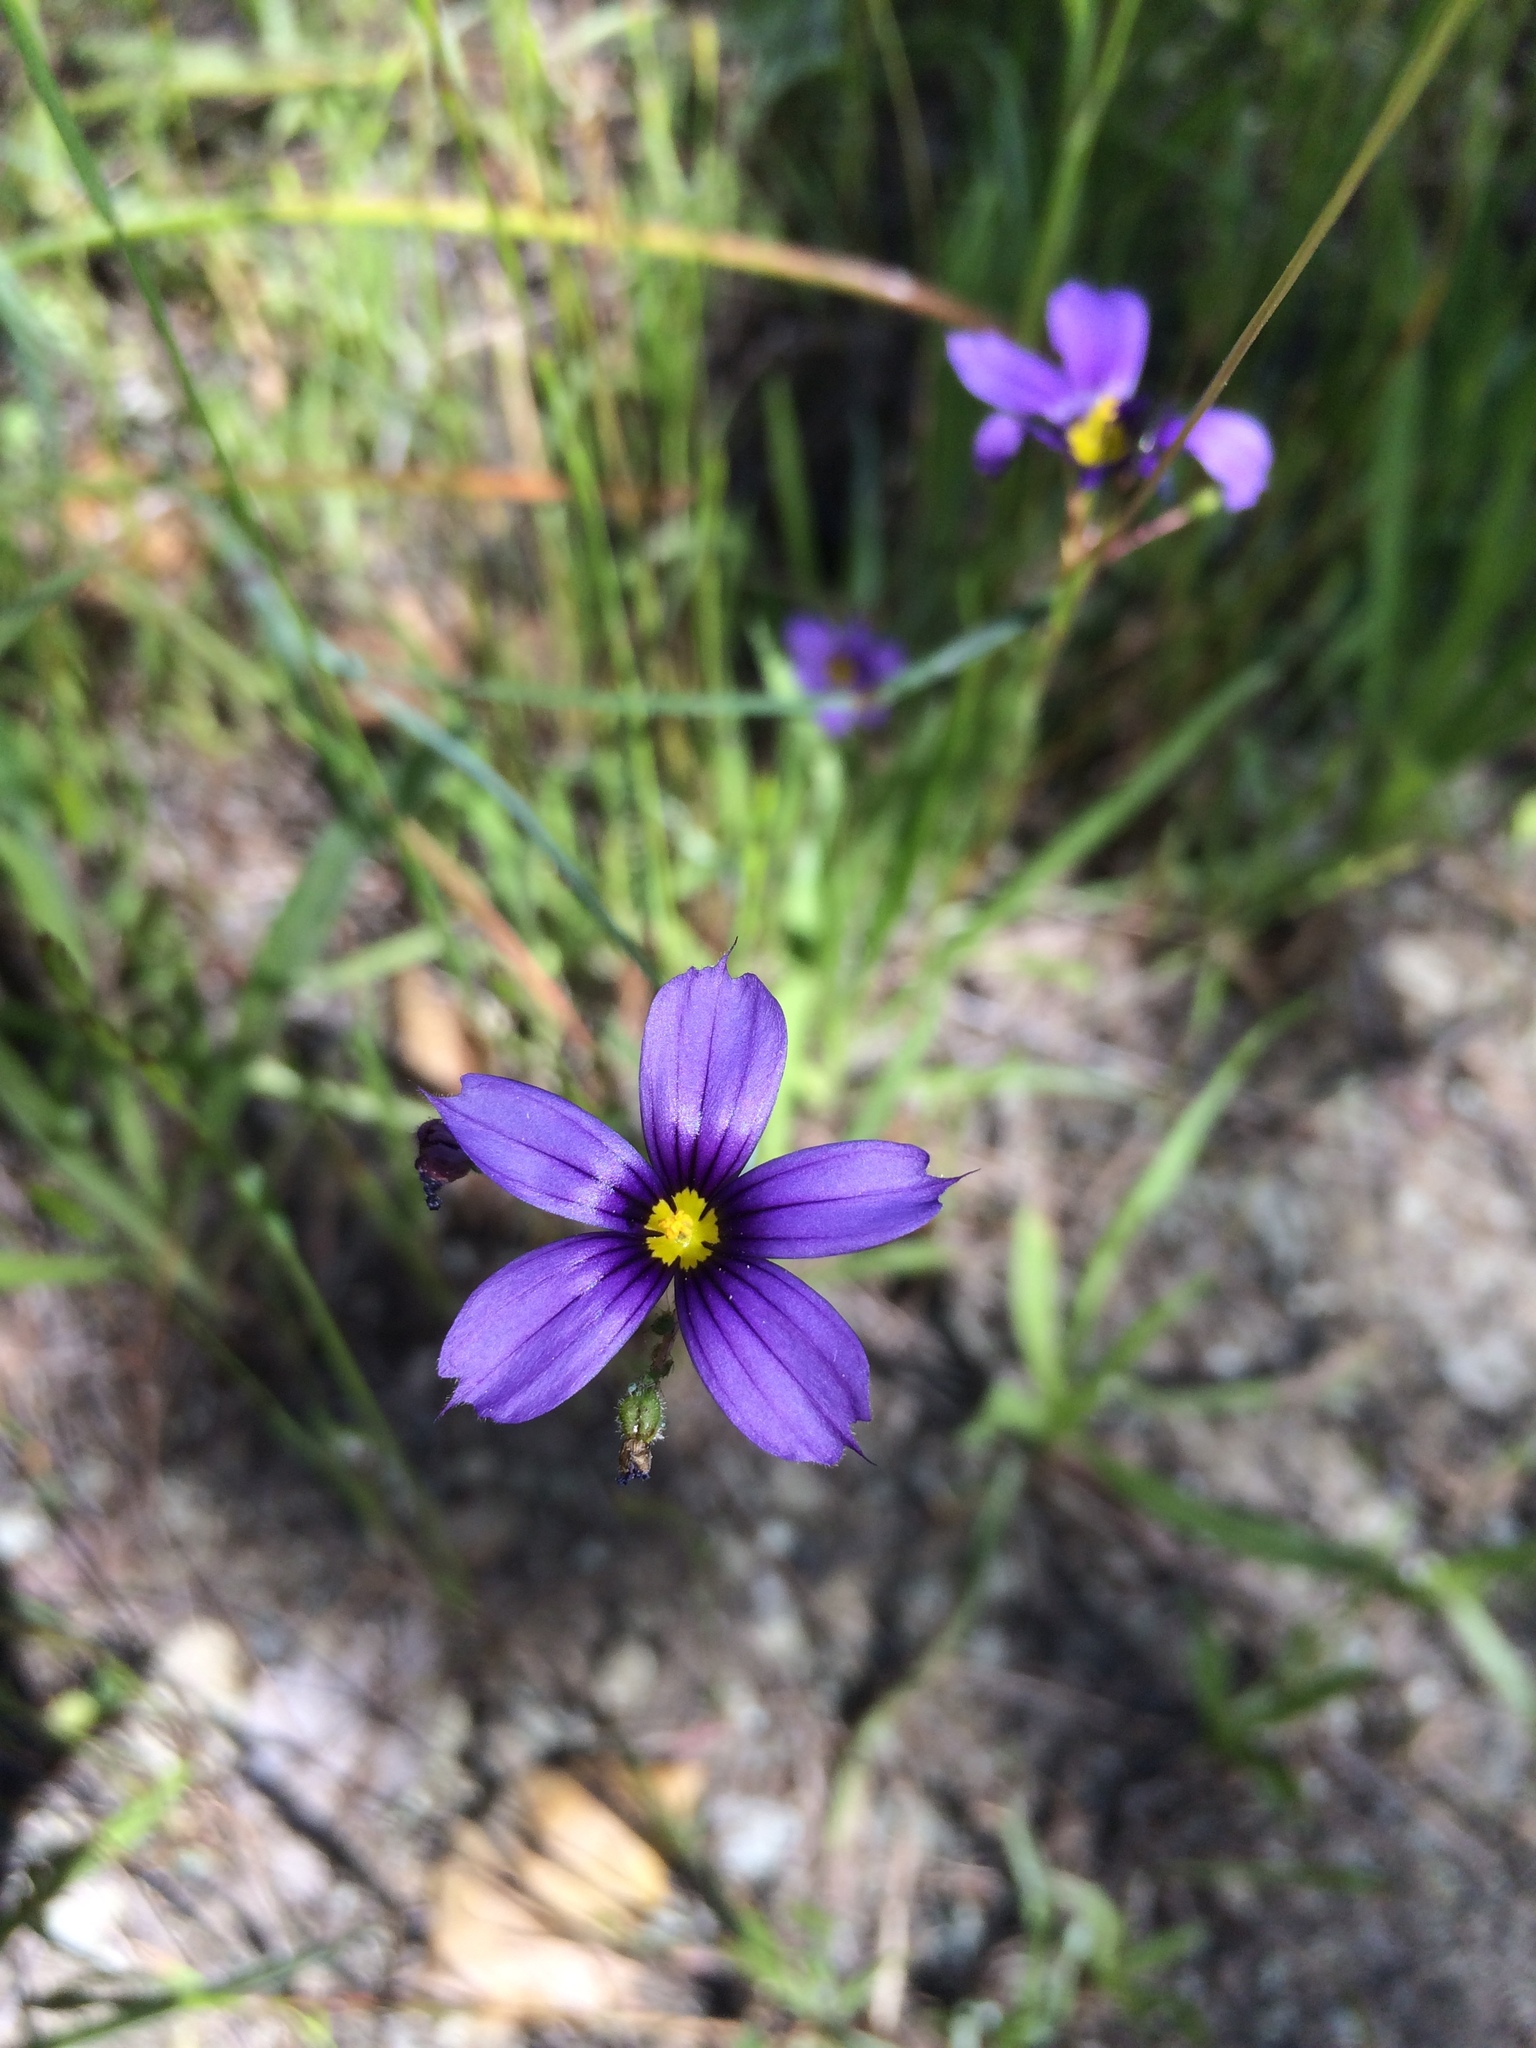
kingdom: Plantae
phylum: Tracheophyta
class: Liliopsida
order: Asparagales
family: Iridaceae
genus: Sisyrinchium
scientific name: Sisyrinchium bellum
